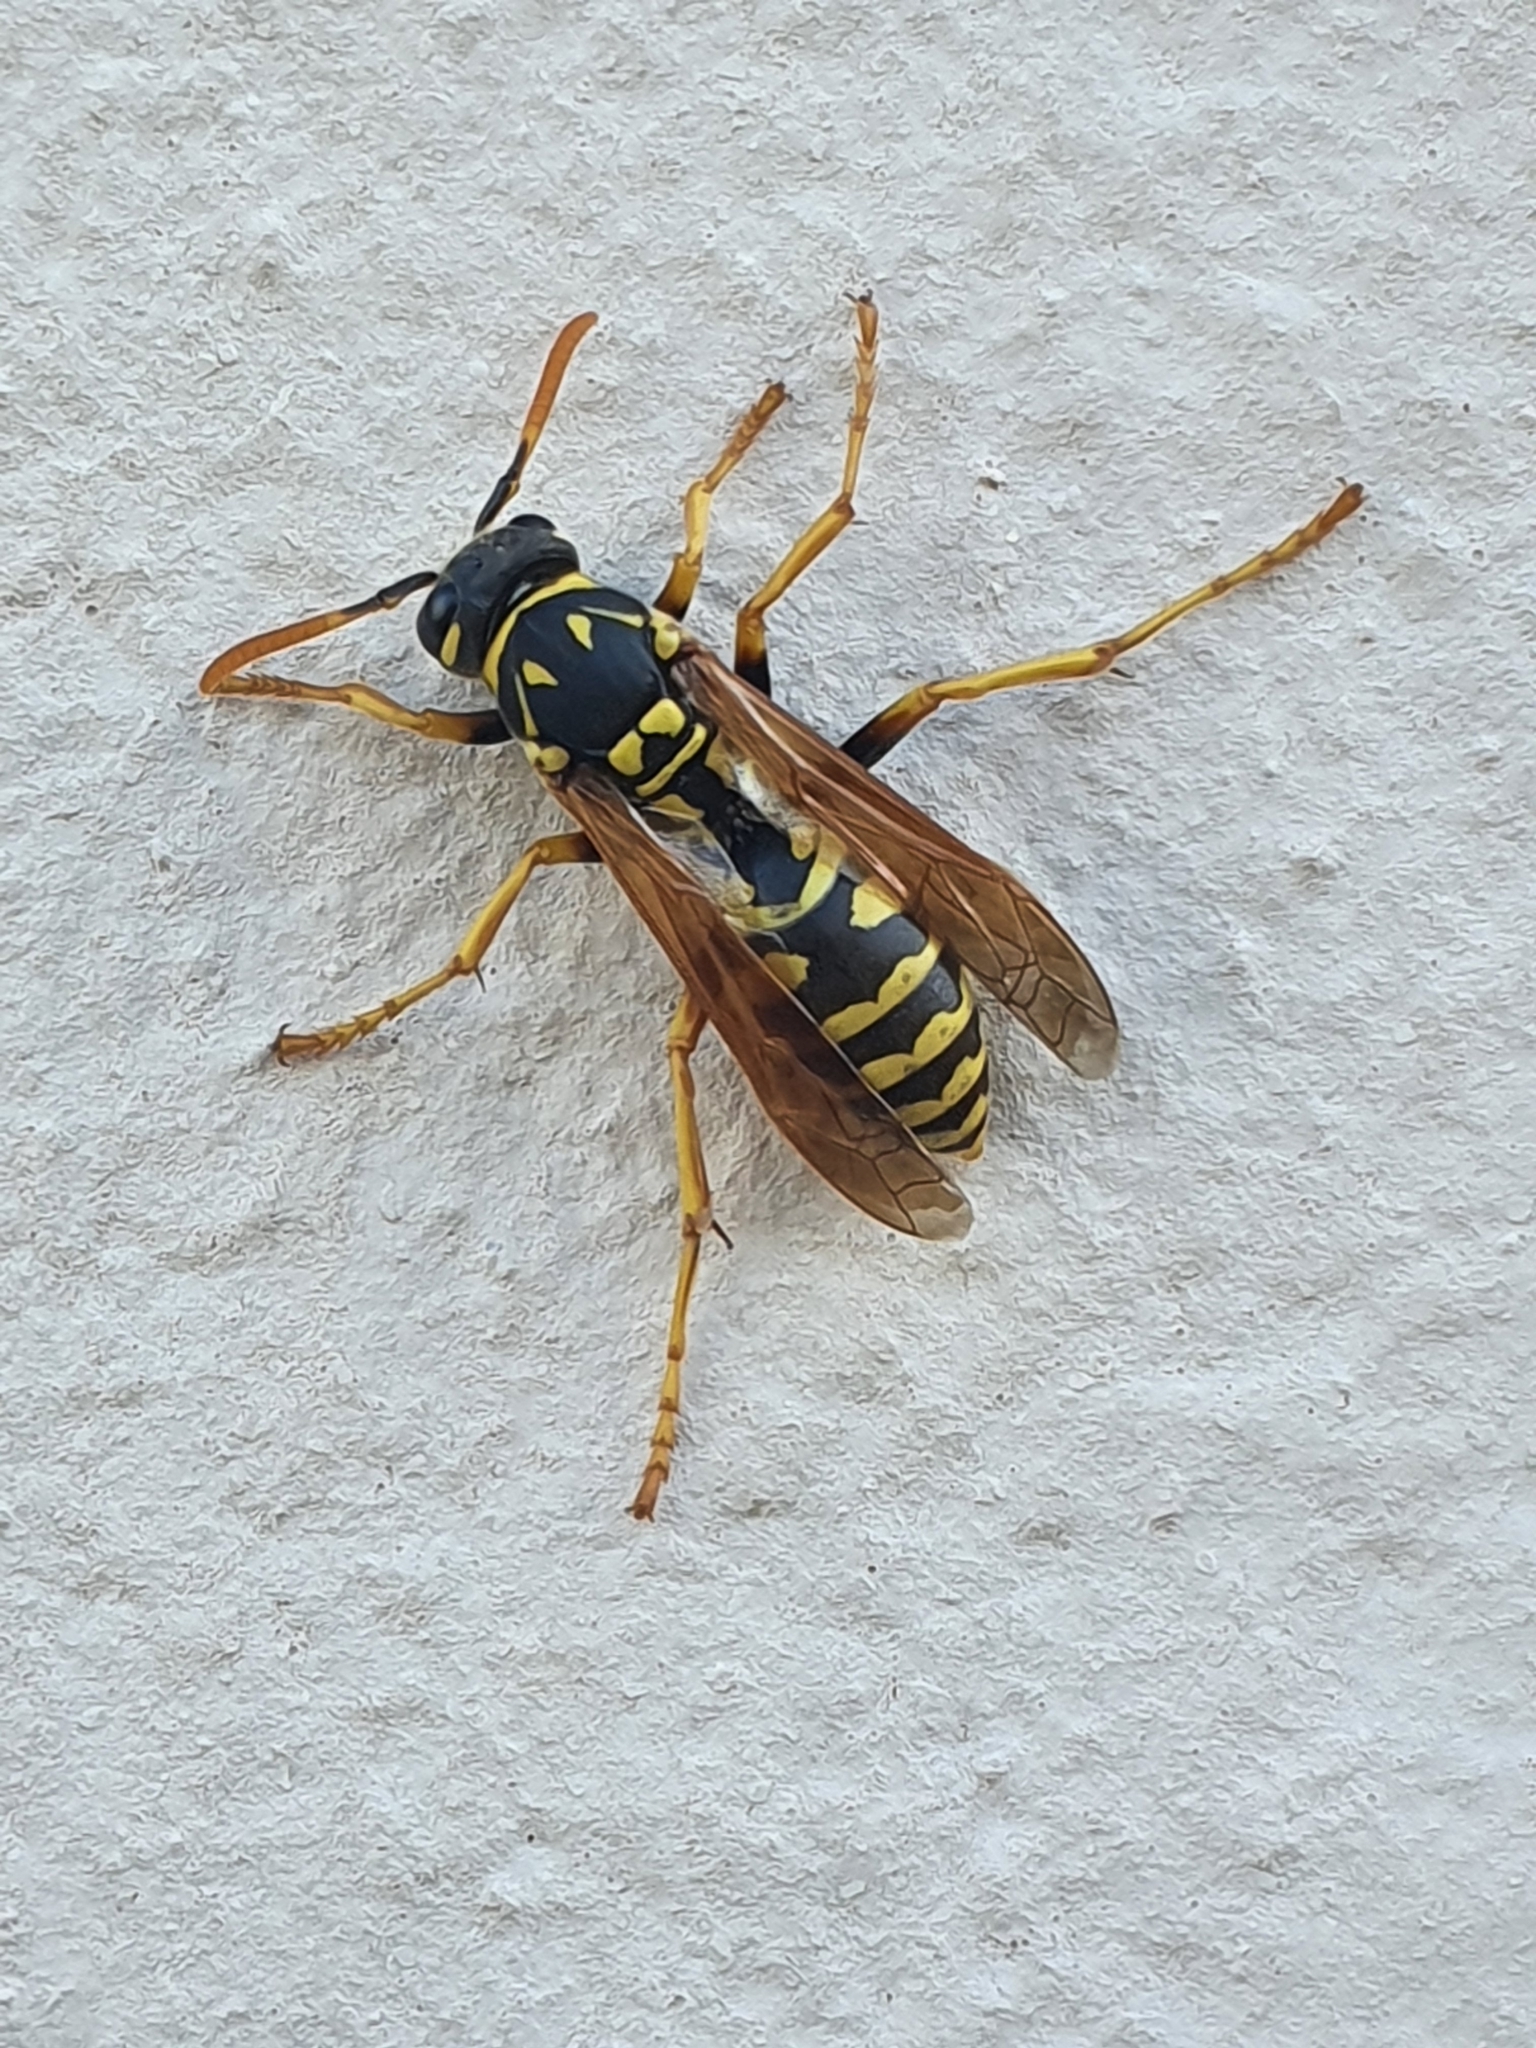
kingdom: Animalia
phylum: Arthropoda
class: Insecta
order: Hymenoptera
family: Eumenidae
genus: Polistes
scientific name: Polistes dominula
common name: Paper wasp
